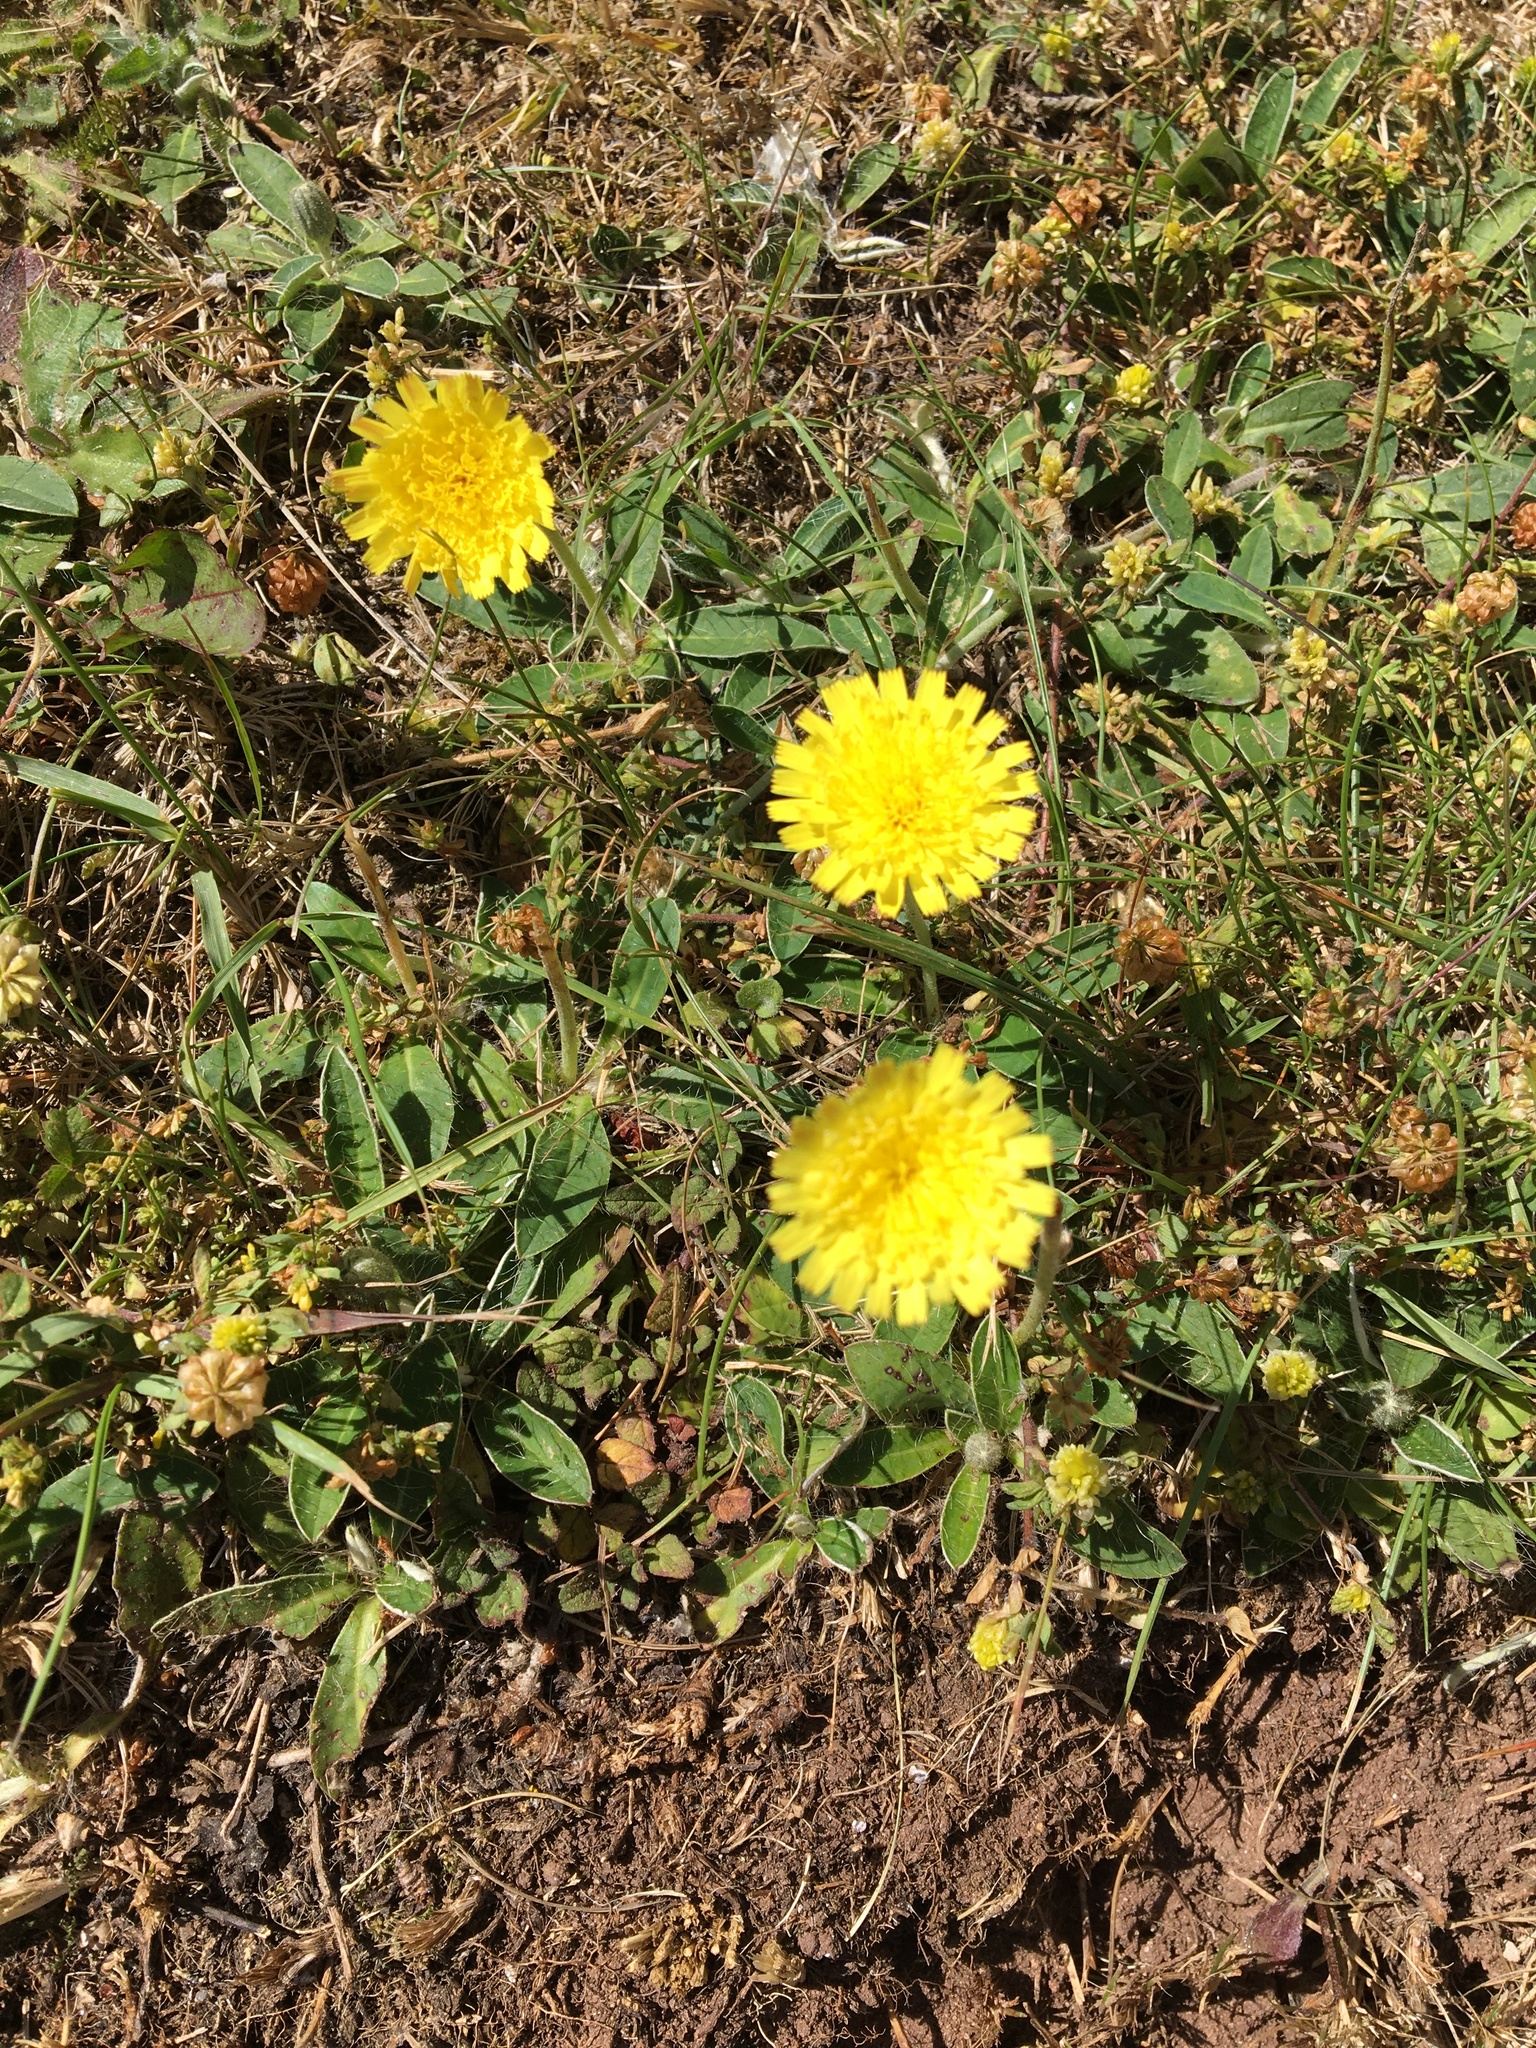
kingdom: Plantae
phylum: Tracheophyta
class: Magnoliopsida
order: Asterales
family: Asteraceae
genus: Pilosella
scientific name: Pilosella officinarum
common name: Mouse-ear hawkweed
